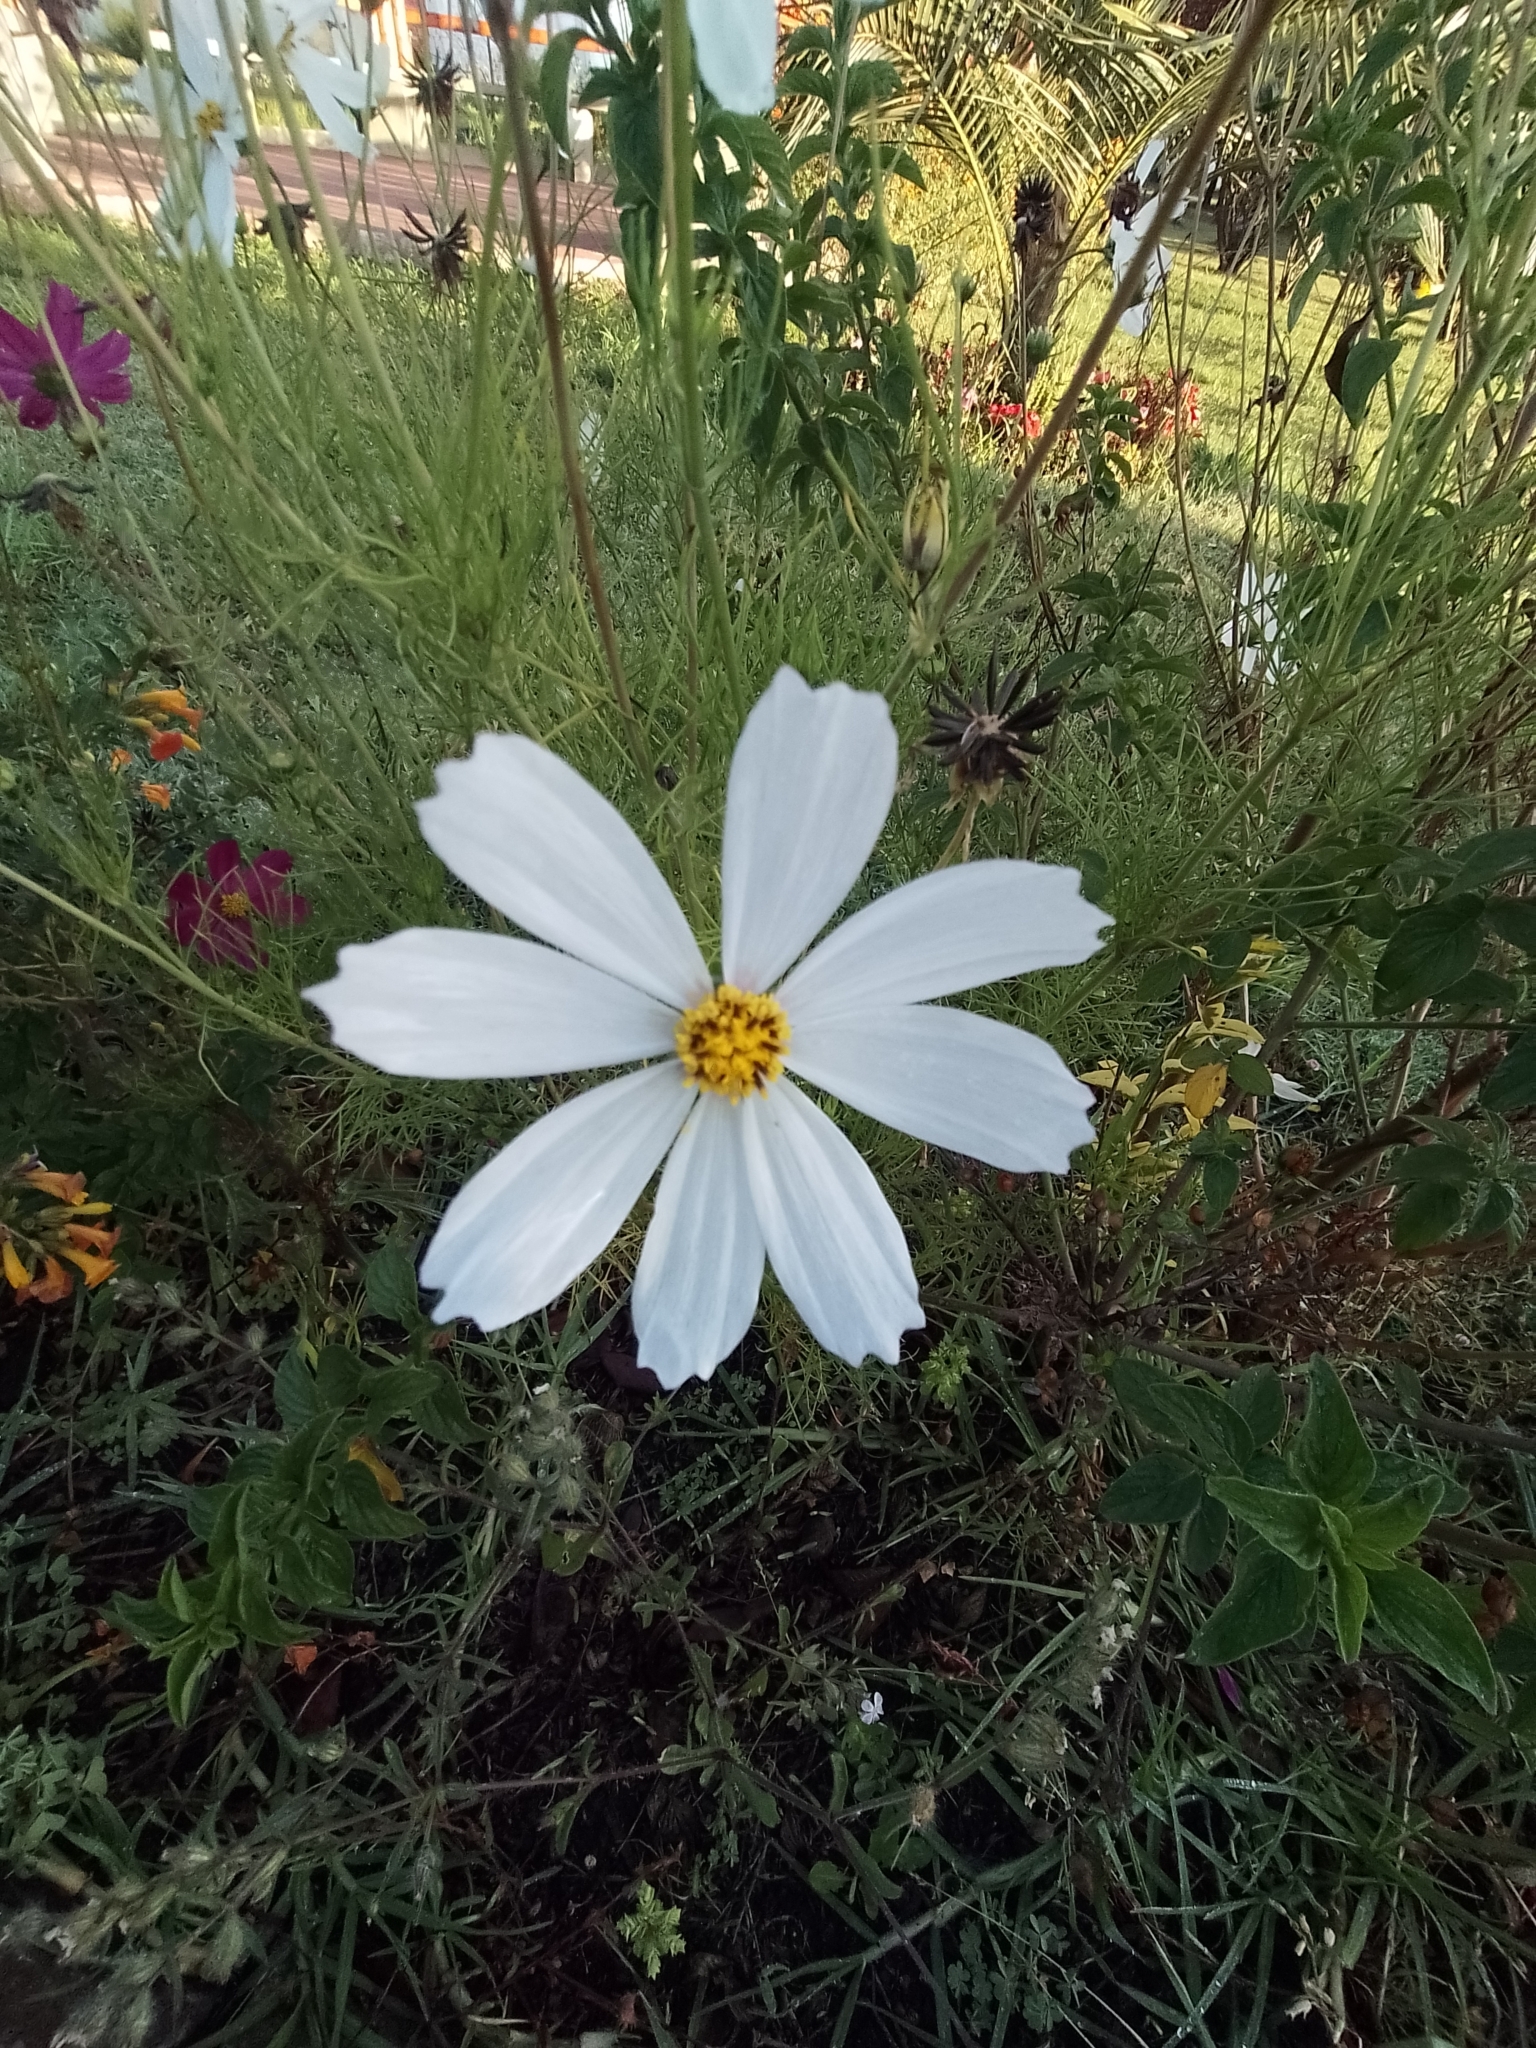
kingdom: Plantae
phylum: Tracheophyta
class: Magnoliopsida
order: Asterales
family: Asteraceae
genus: Cosmos
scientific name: Cosmos bipinnatus
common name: Garden cosmos
